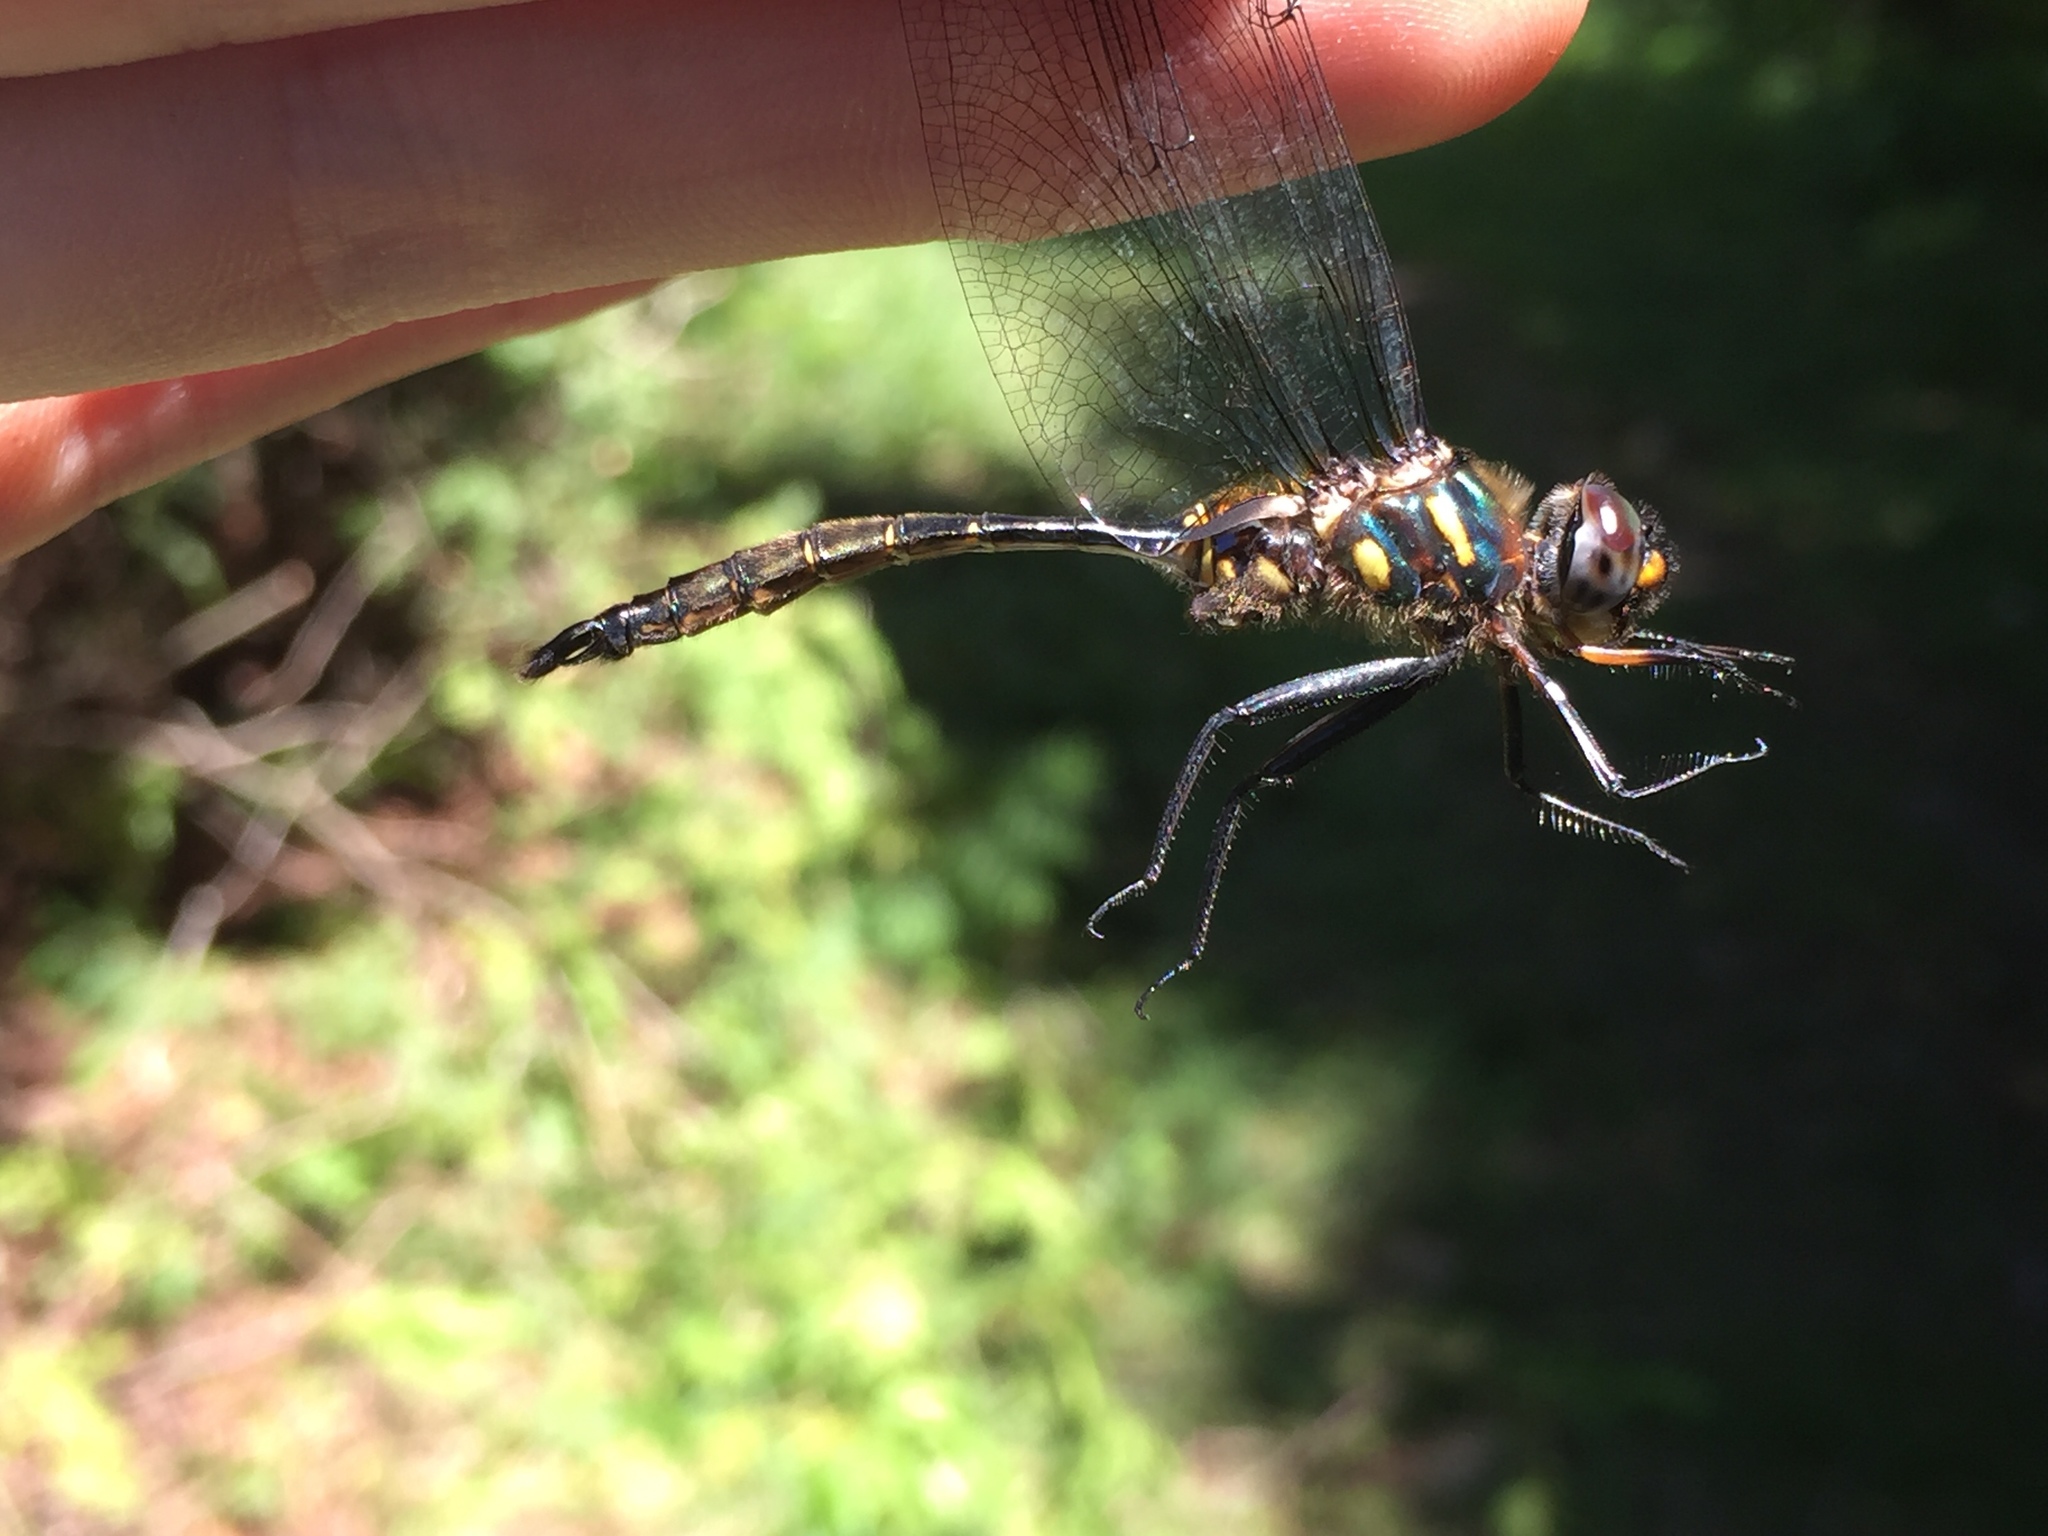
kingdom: Animalia
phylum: Arthropoda
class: Insecta
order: Odonata
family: Corduliidae
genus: Somatochlora
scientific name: Somatochlora walshii
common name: Brush-tipped emerald
